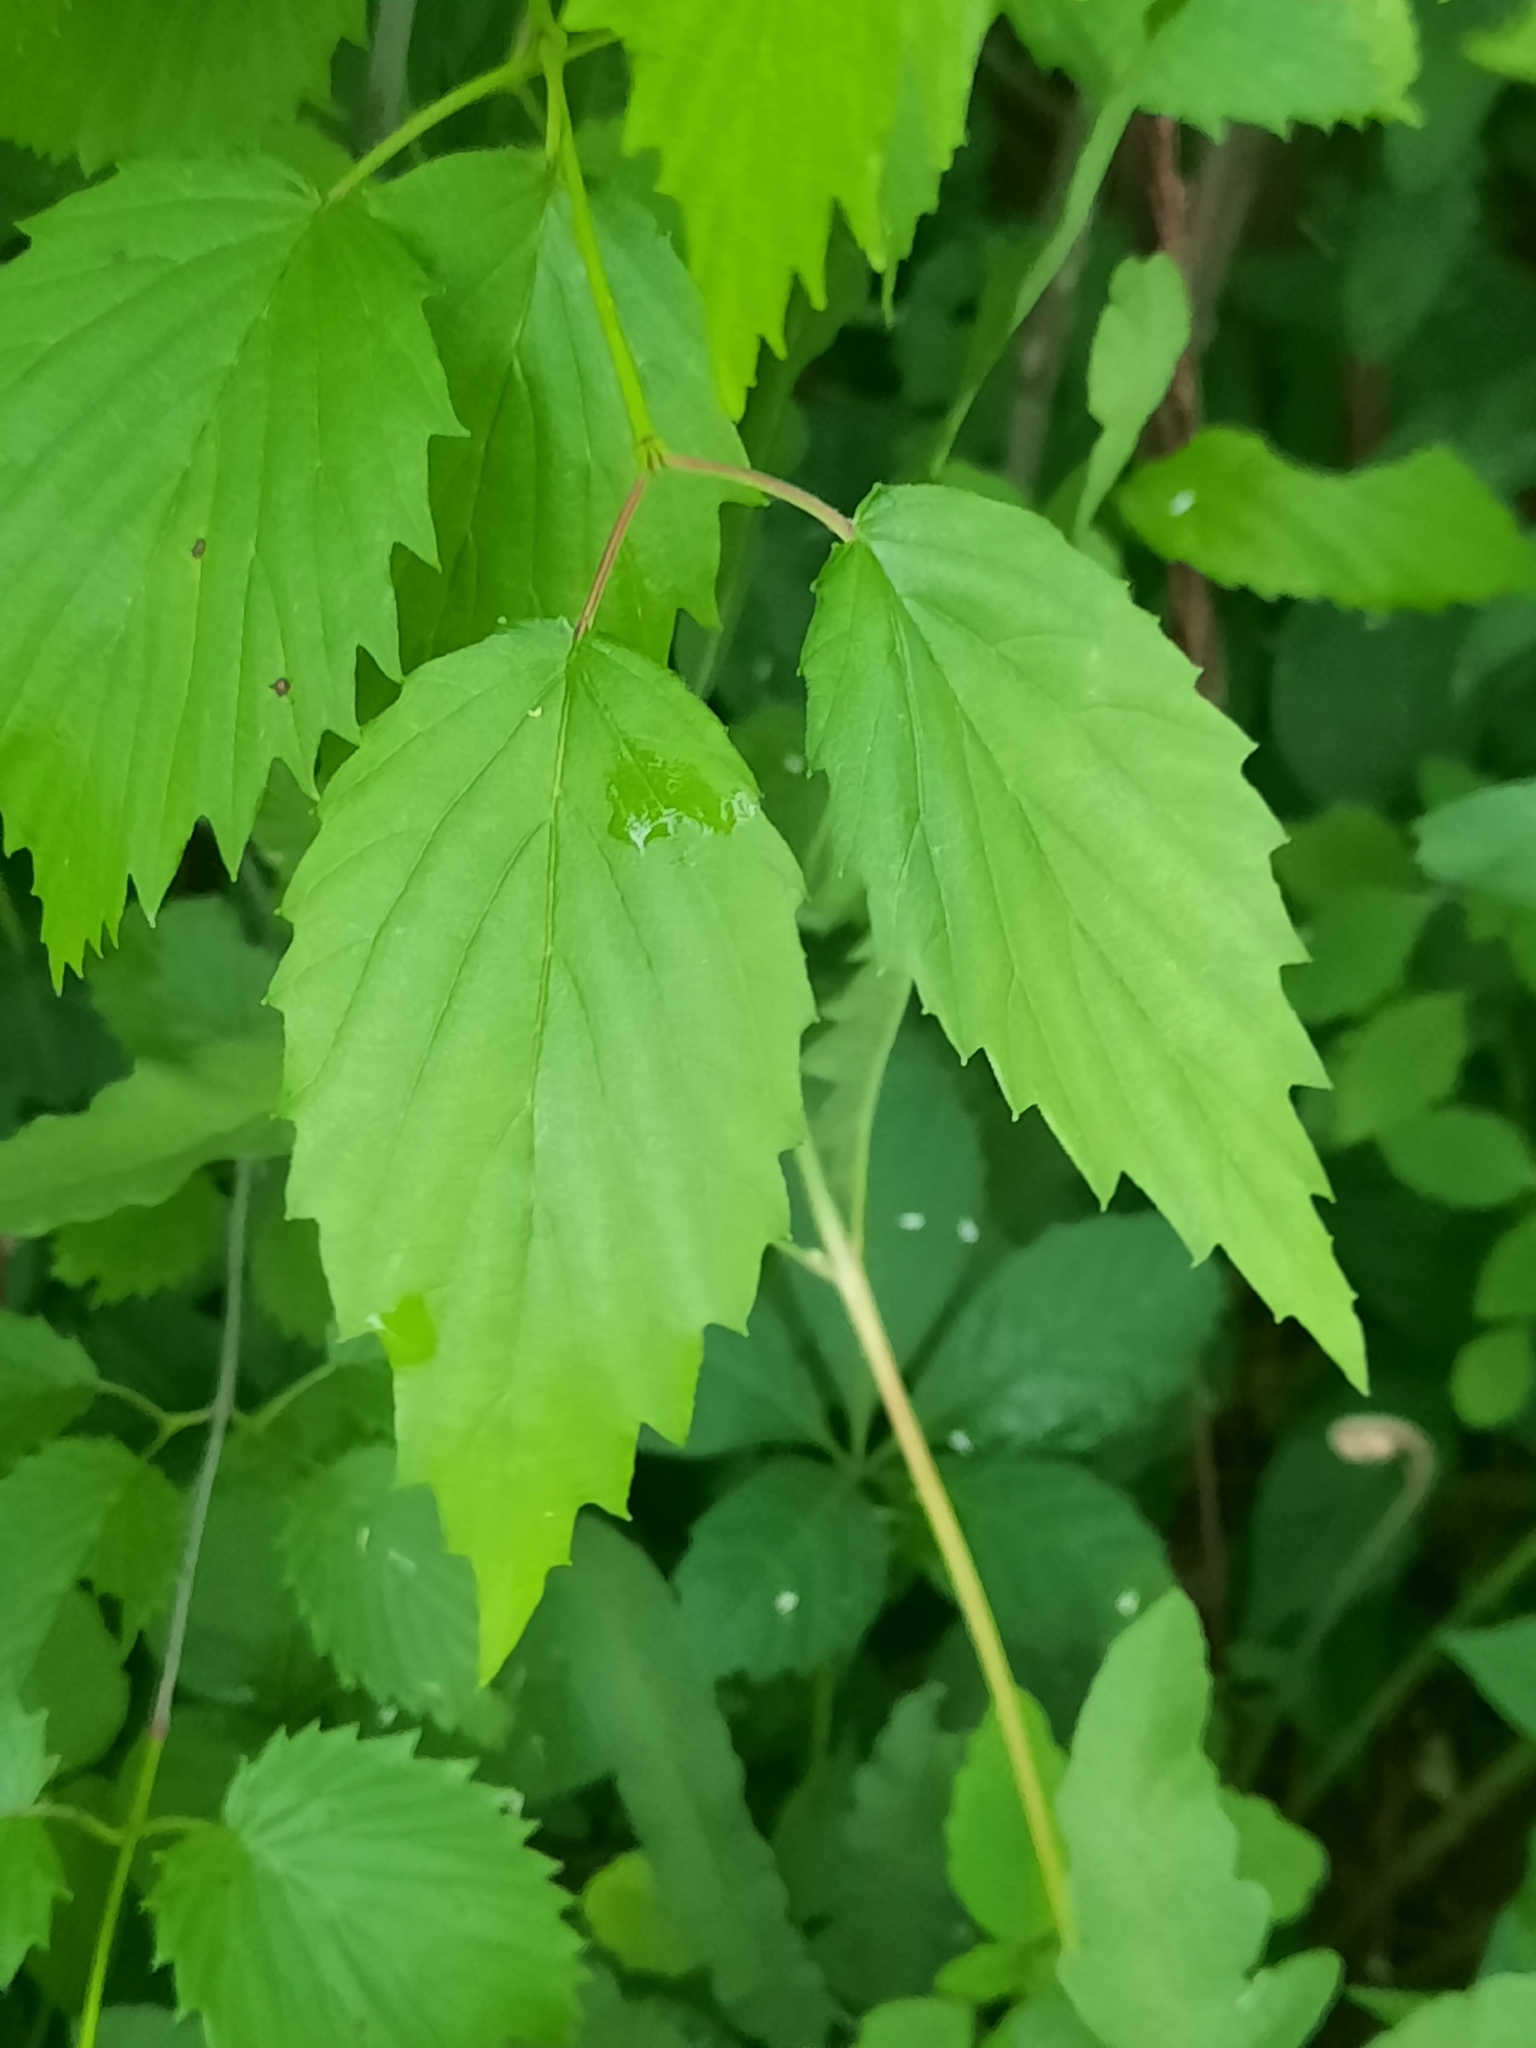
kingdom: Plantae
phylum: Tracheophyta
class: Magnoliopsida
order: Dipsacales
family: Viburnaceae
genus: Viburnum
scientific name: Viburnum recognitum
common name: Northern arrow-wood
